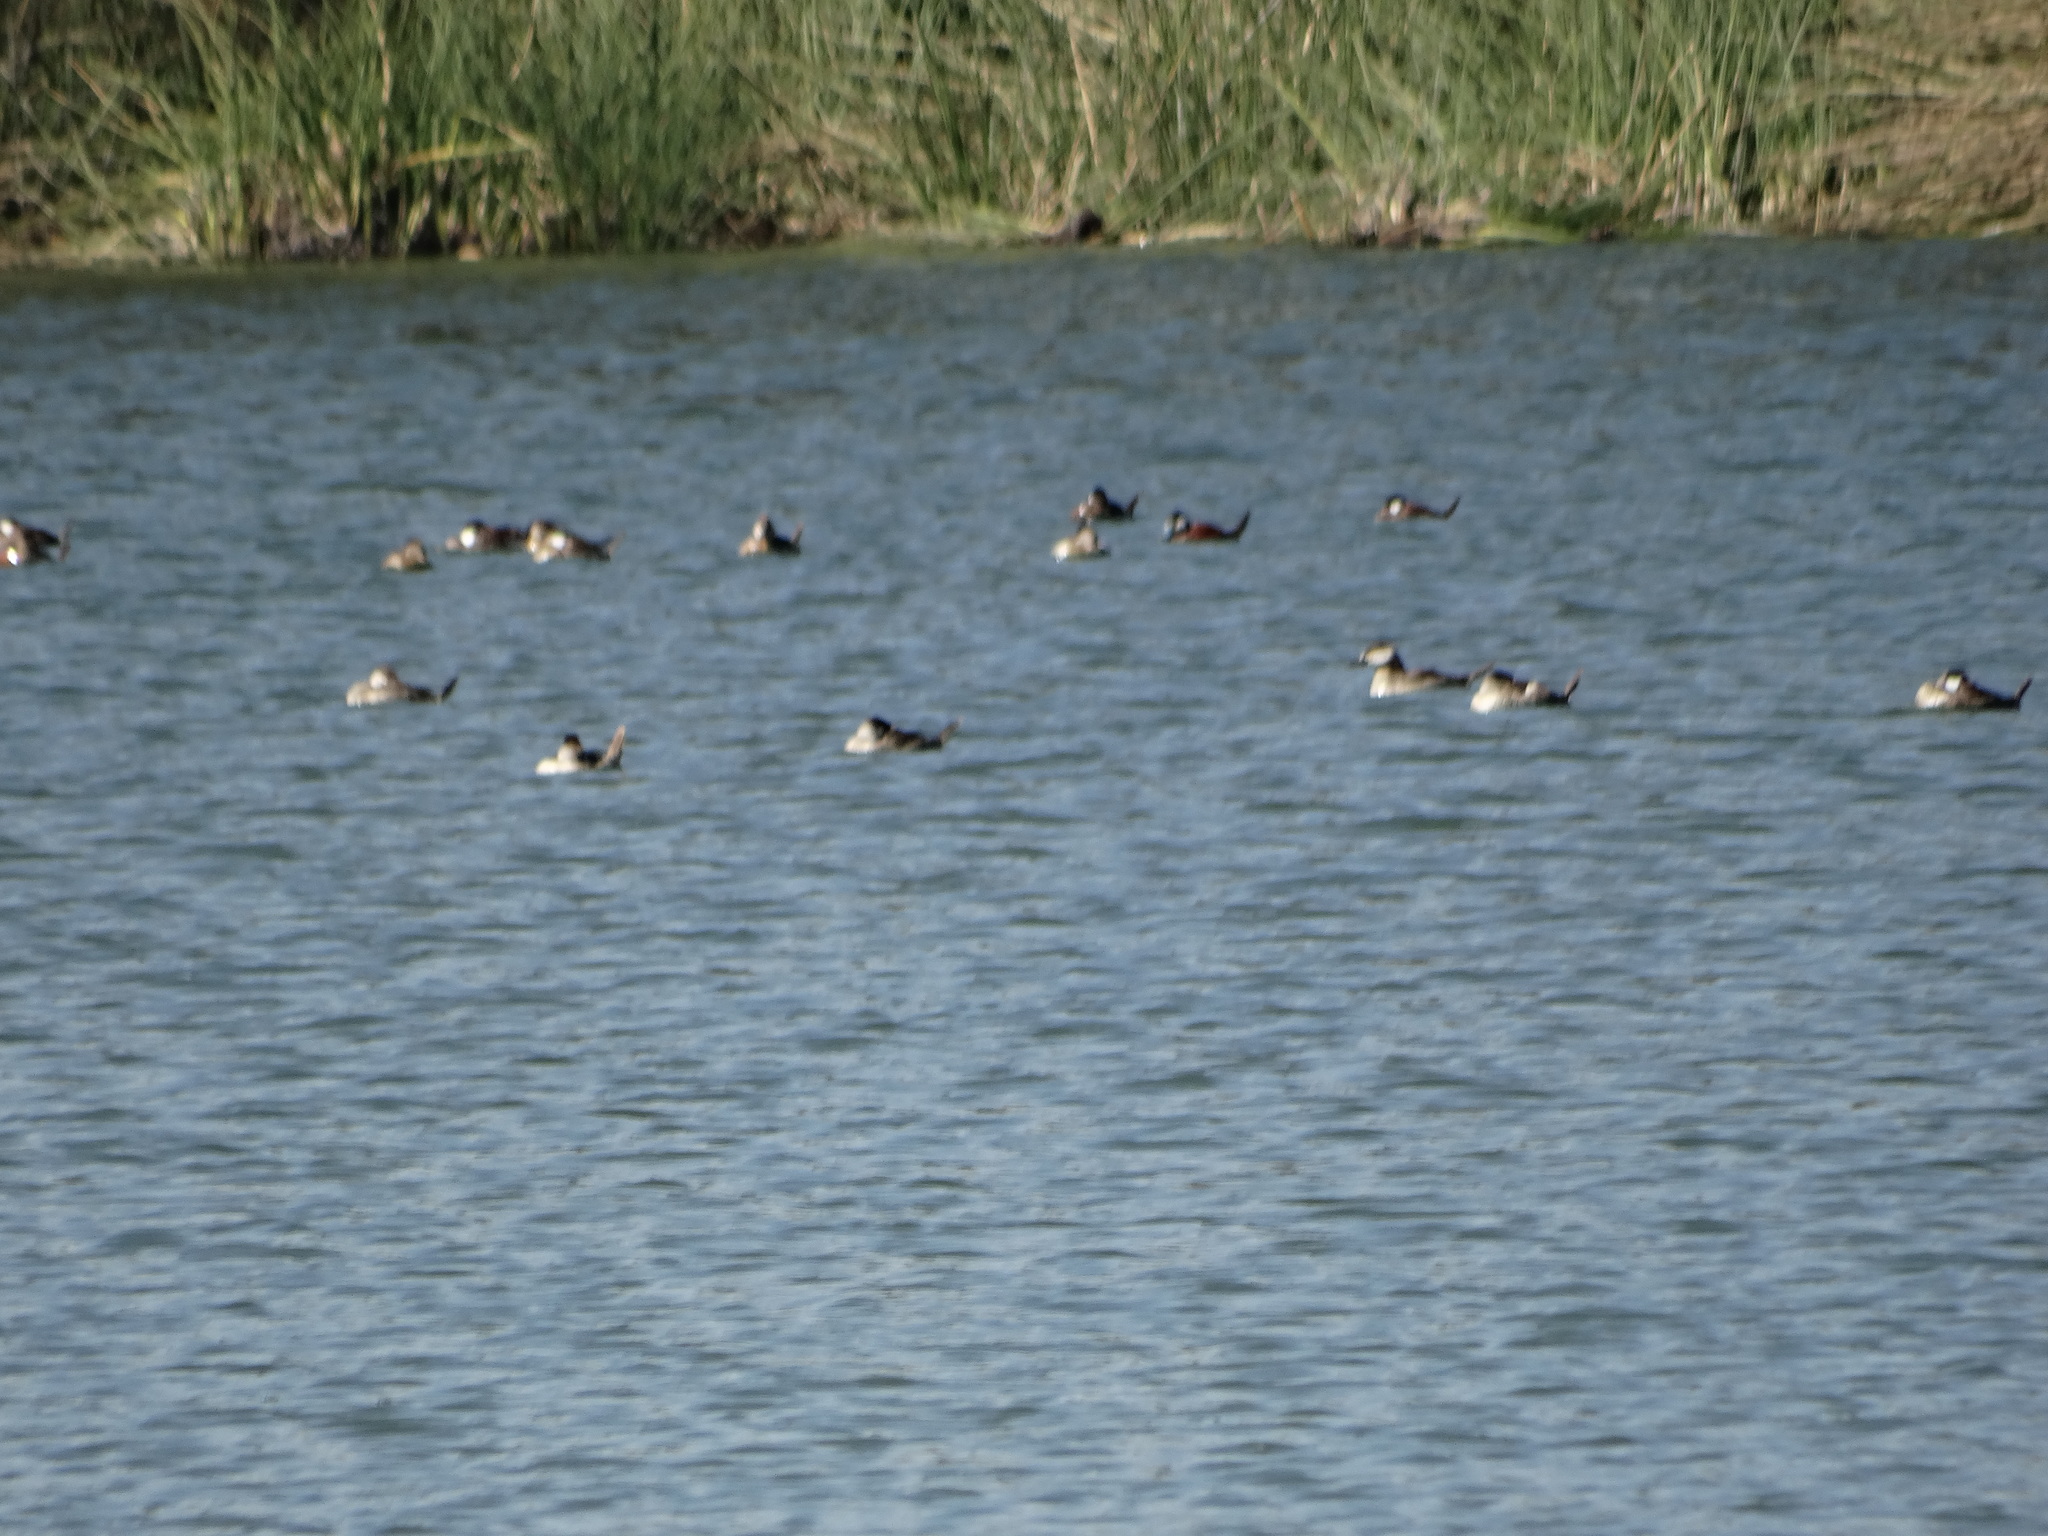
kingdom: Animalia
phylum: Chordata
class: Aves
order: Anseriformes
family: Anatidae
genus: Oxyura
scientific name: Oxyura jamaicensis
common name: Ruddy duck
